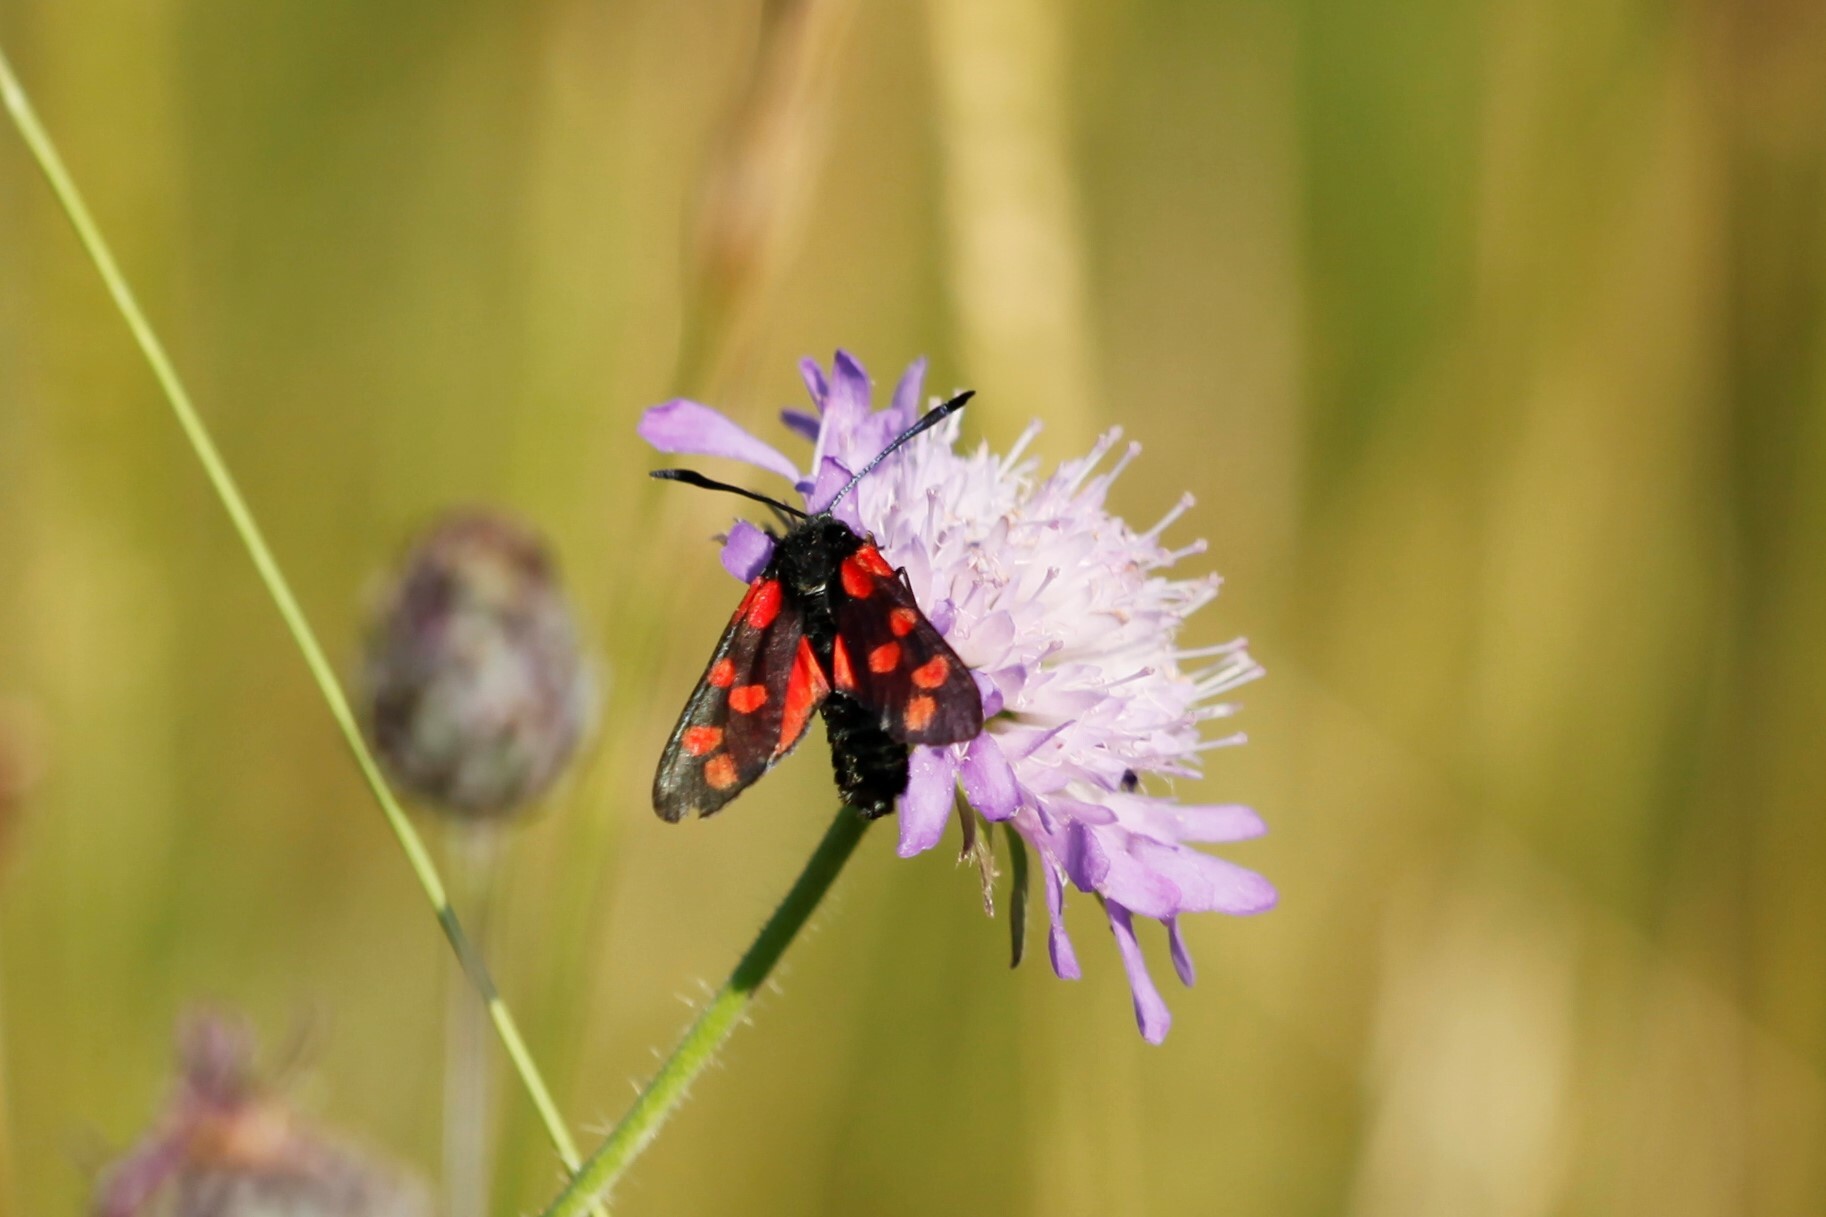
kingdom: Animalia
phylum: Arthropoda
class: Insecta
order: Lepidoptera
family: Zygaenidae
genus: Zygaena
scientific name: Zygaena filipendulae
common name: Six-spot burnet
